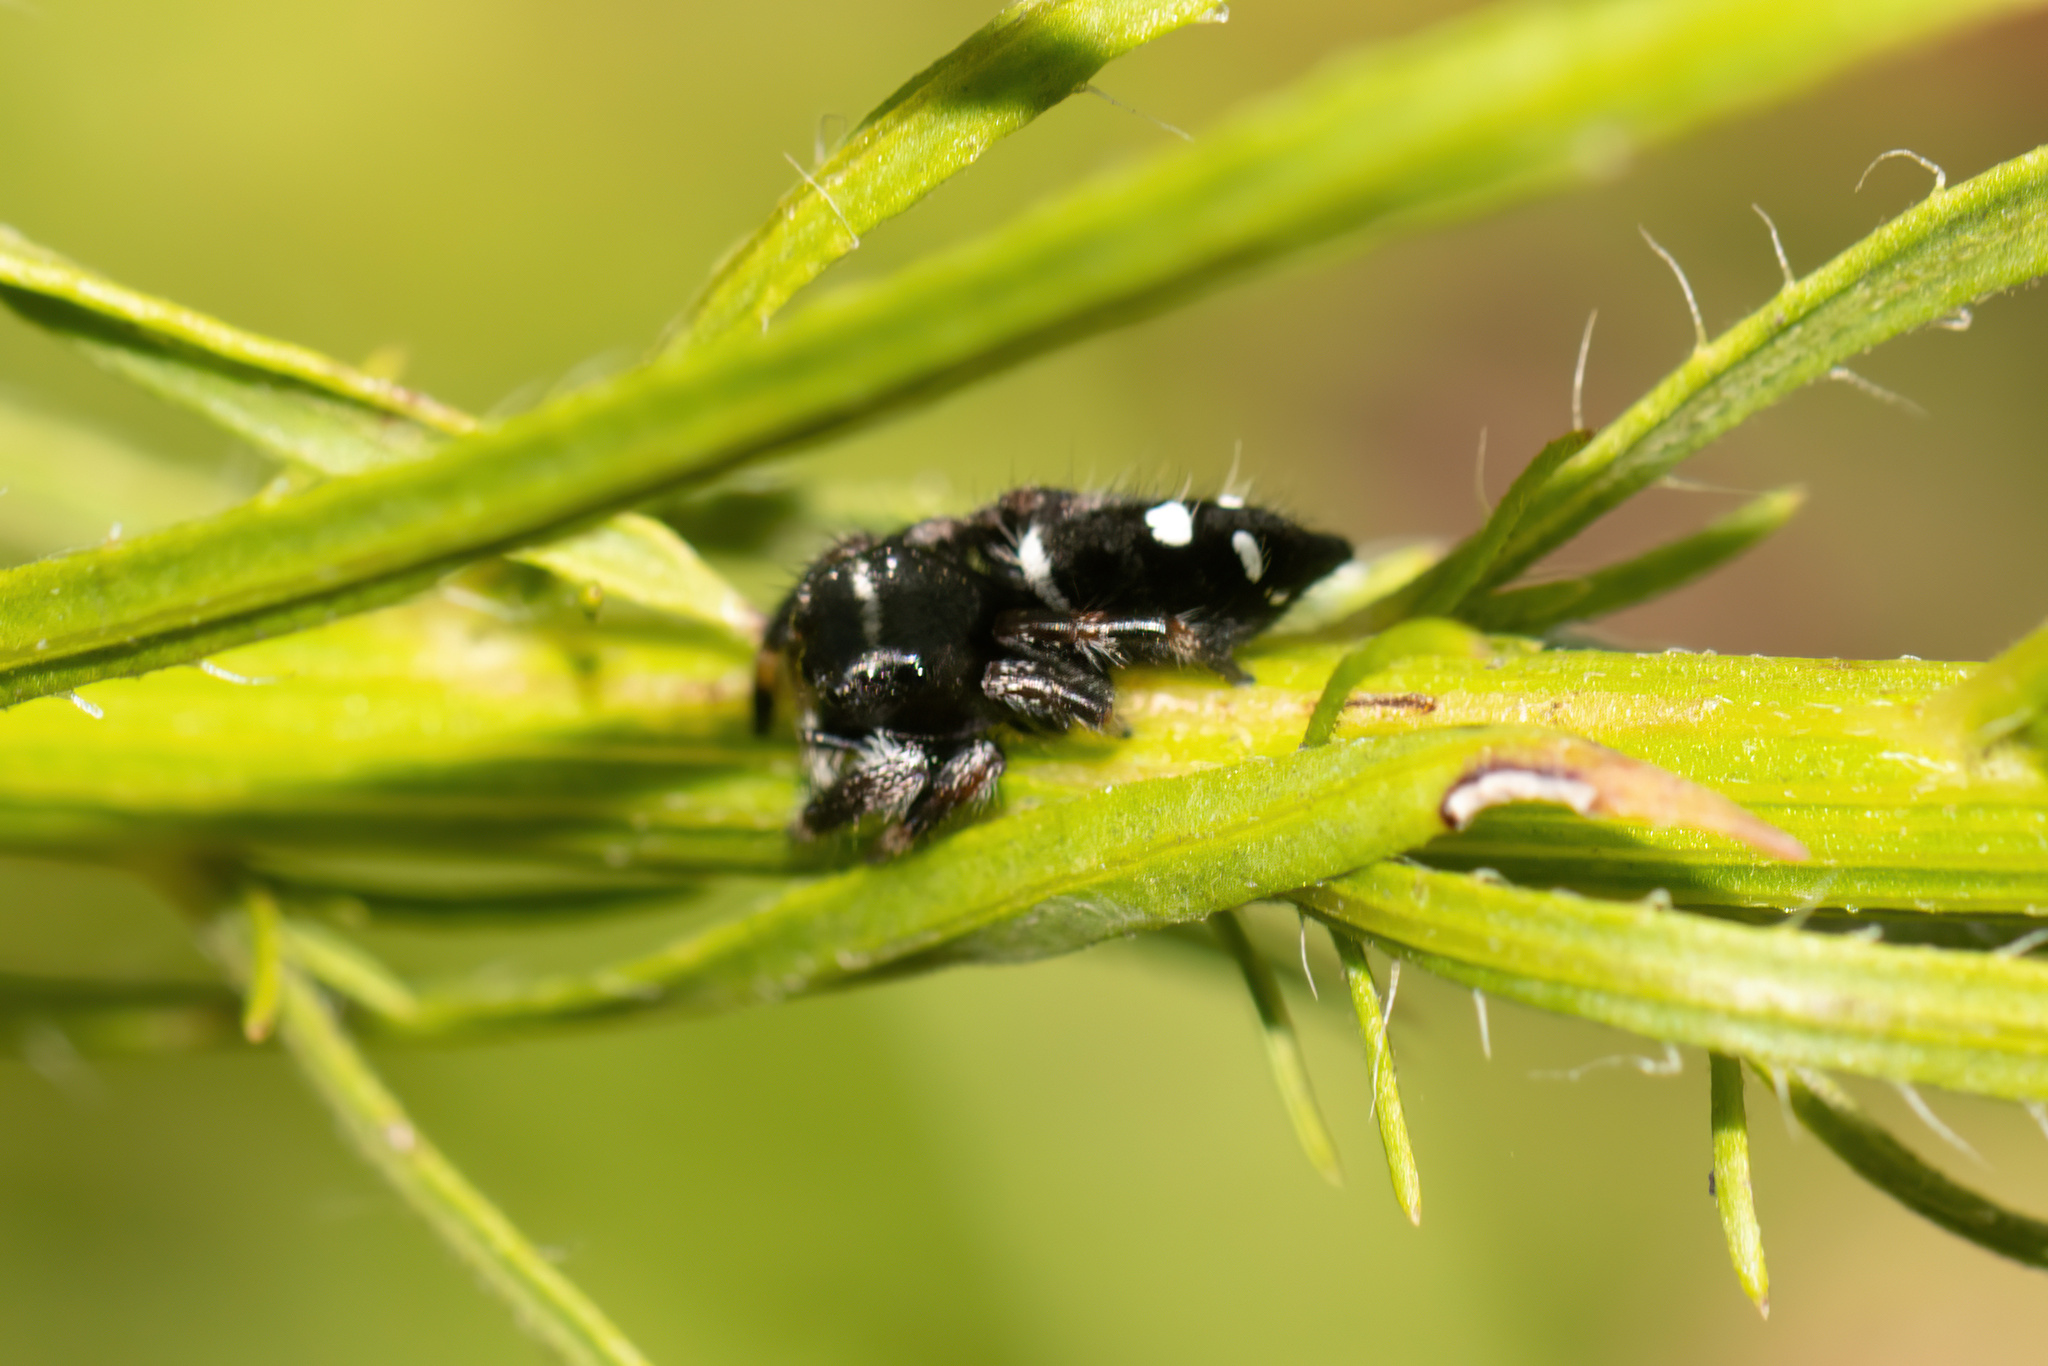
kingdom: Animalia
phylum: Arthropoda
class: Arachnida
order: Araneae
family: Salticidae
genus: Phidippus
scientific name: Phidippus regius
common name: Regal jumper
